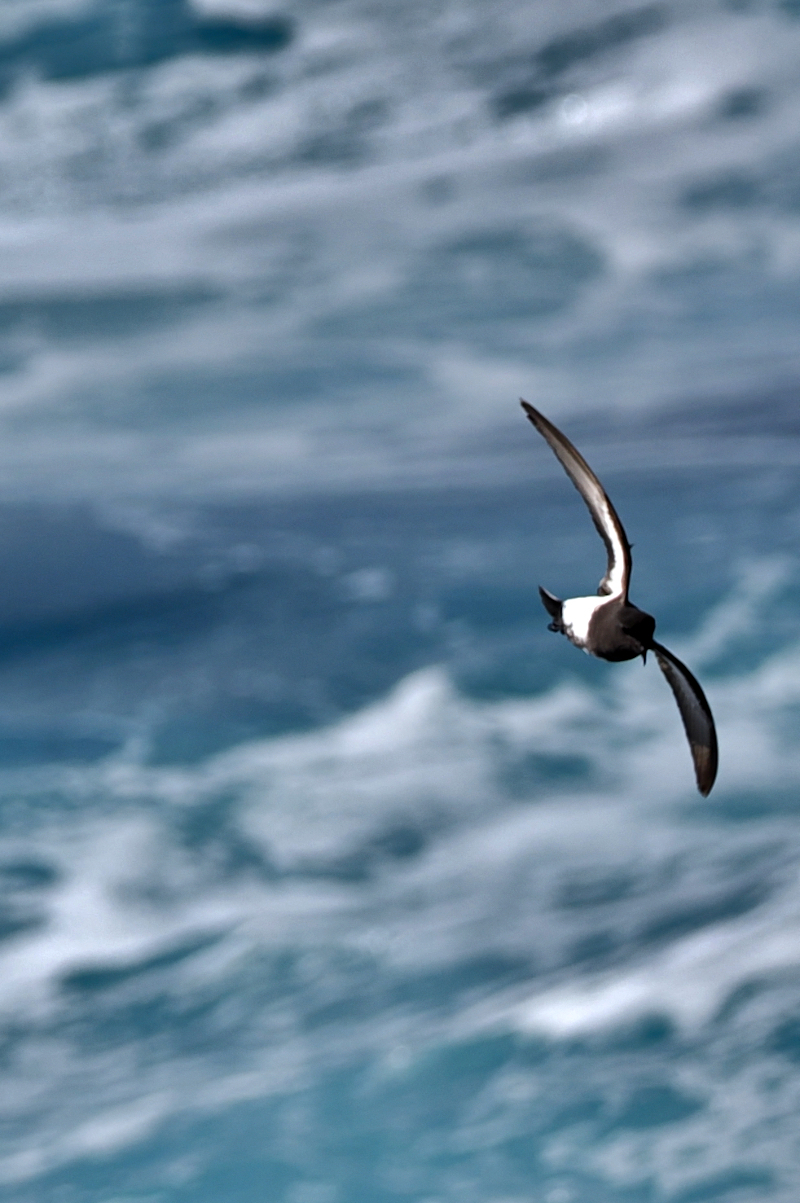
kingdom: Animalia
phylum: Chordata
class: Aves
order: Procellariiformes
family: Hydrobatidae
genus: Fregetta
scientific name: Fregetta tropica
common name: Black-bellied storm-petrel
